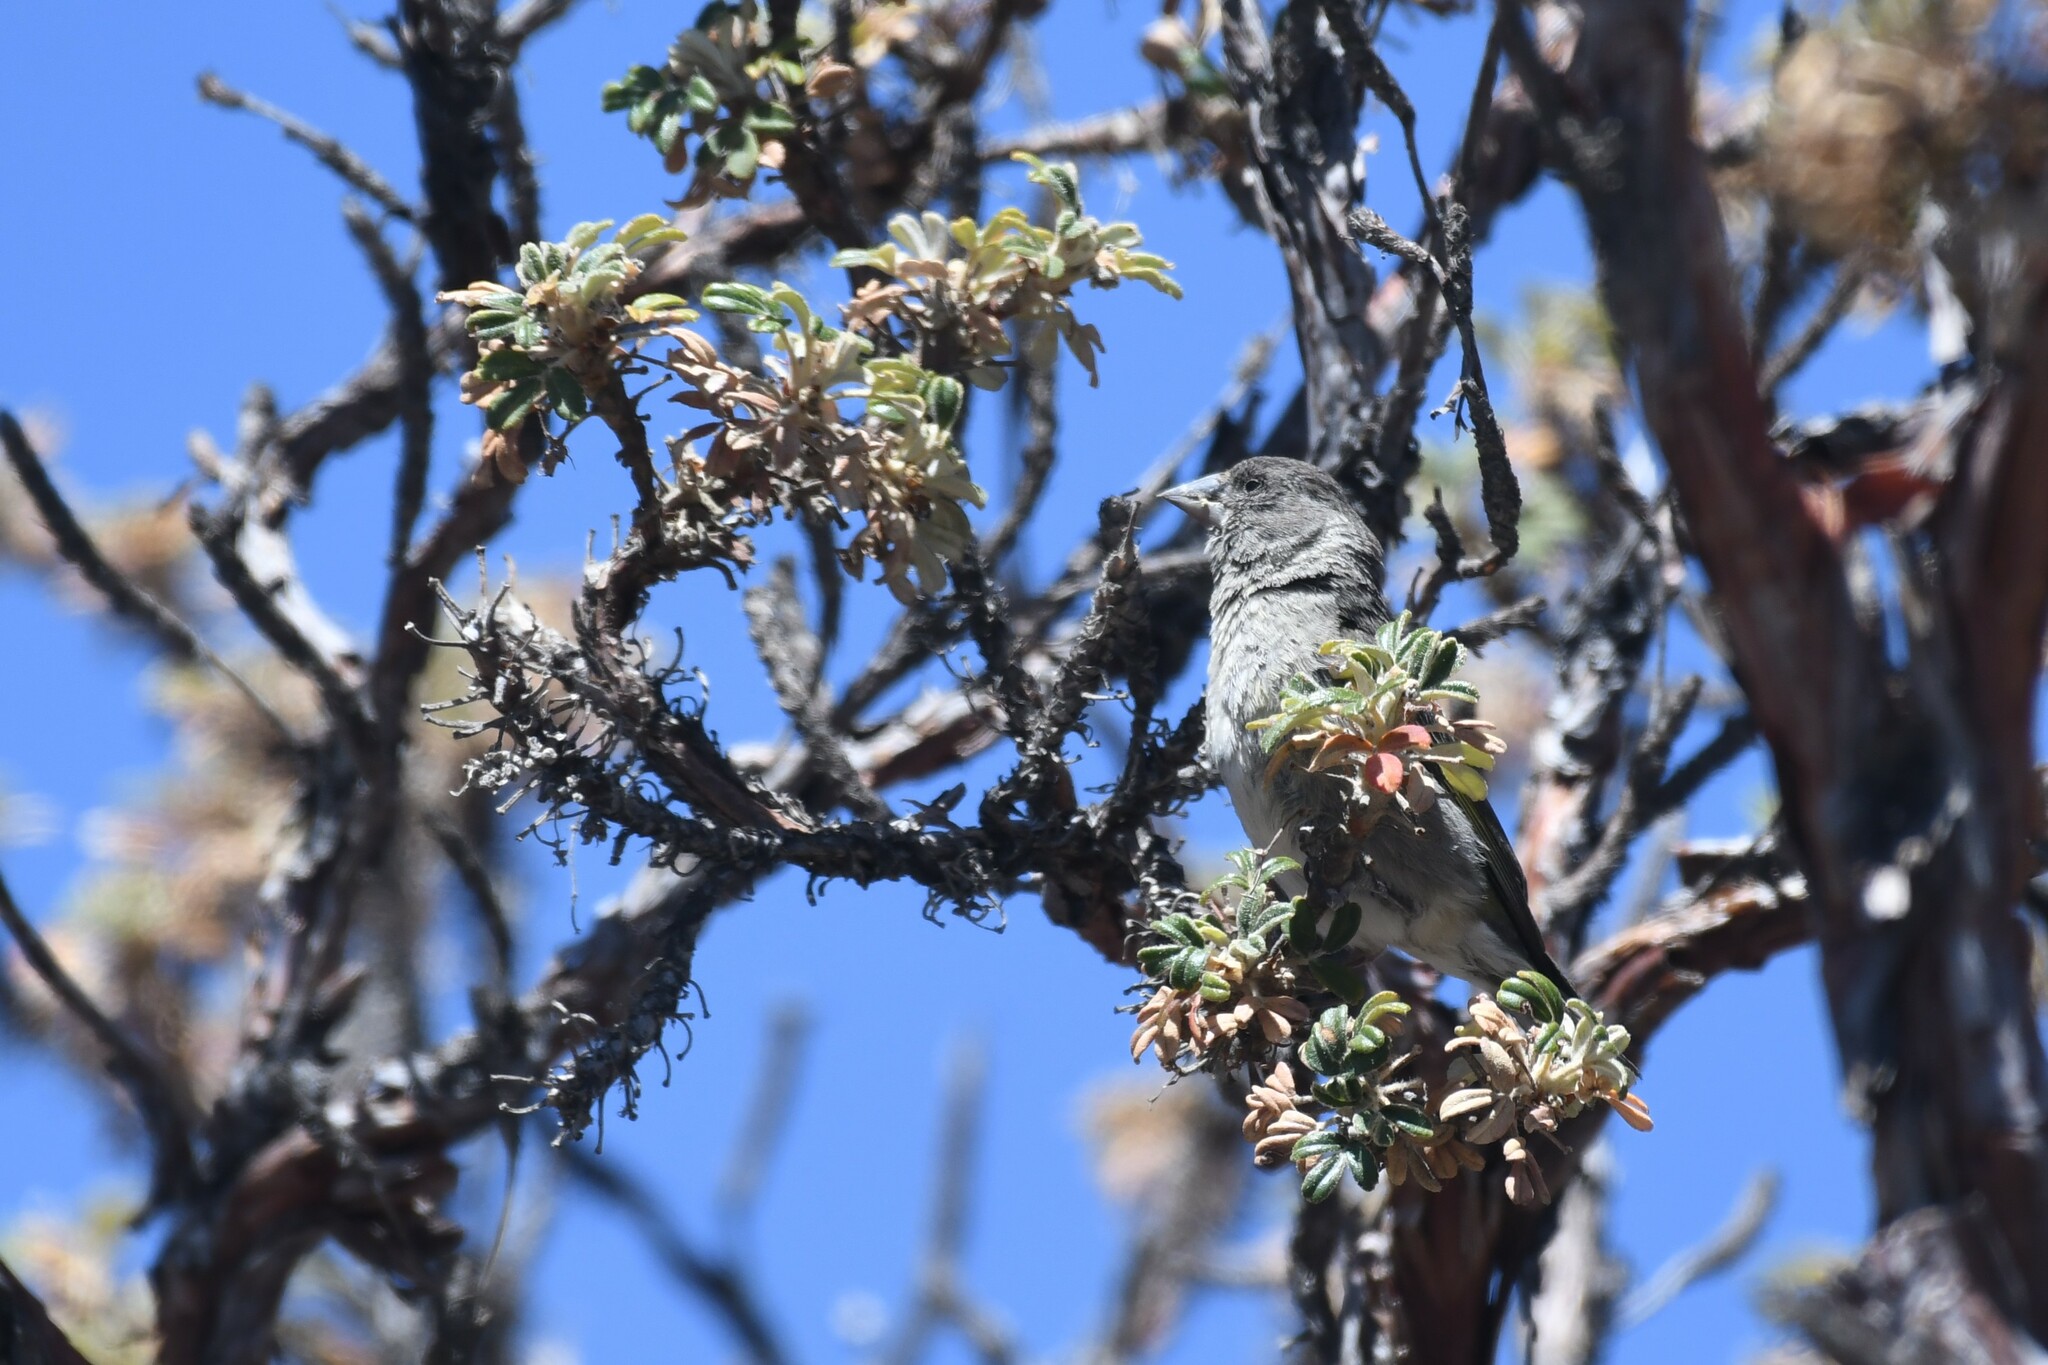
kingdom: Animalia
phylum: Chordata
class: Aves
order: Passeriformes
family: Fringillidae
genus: Spinus
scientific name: Spinus crassirostris
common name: Thick-billed siskin
